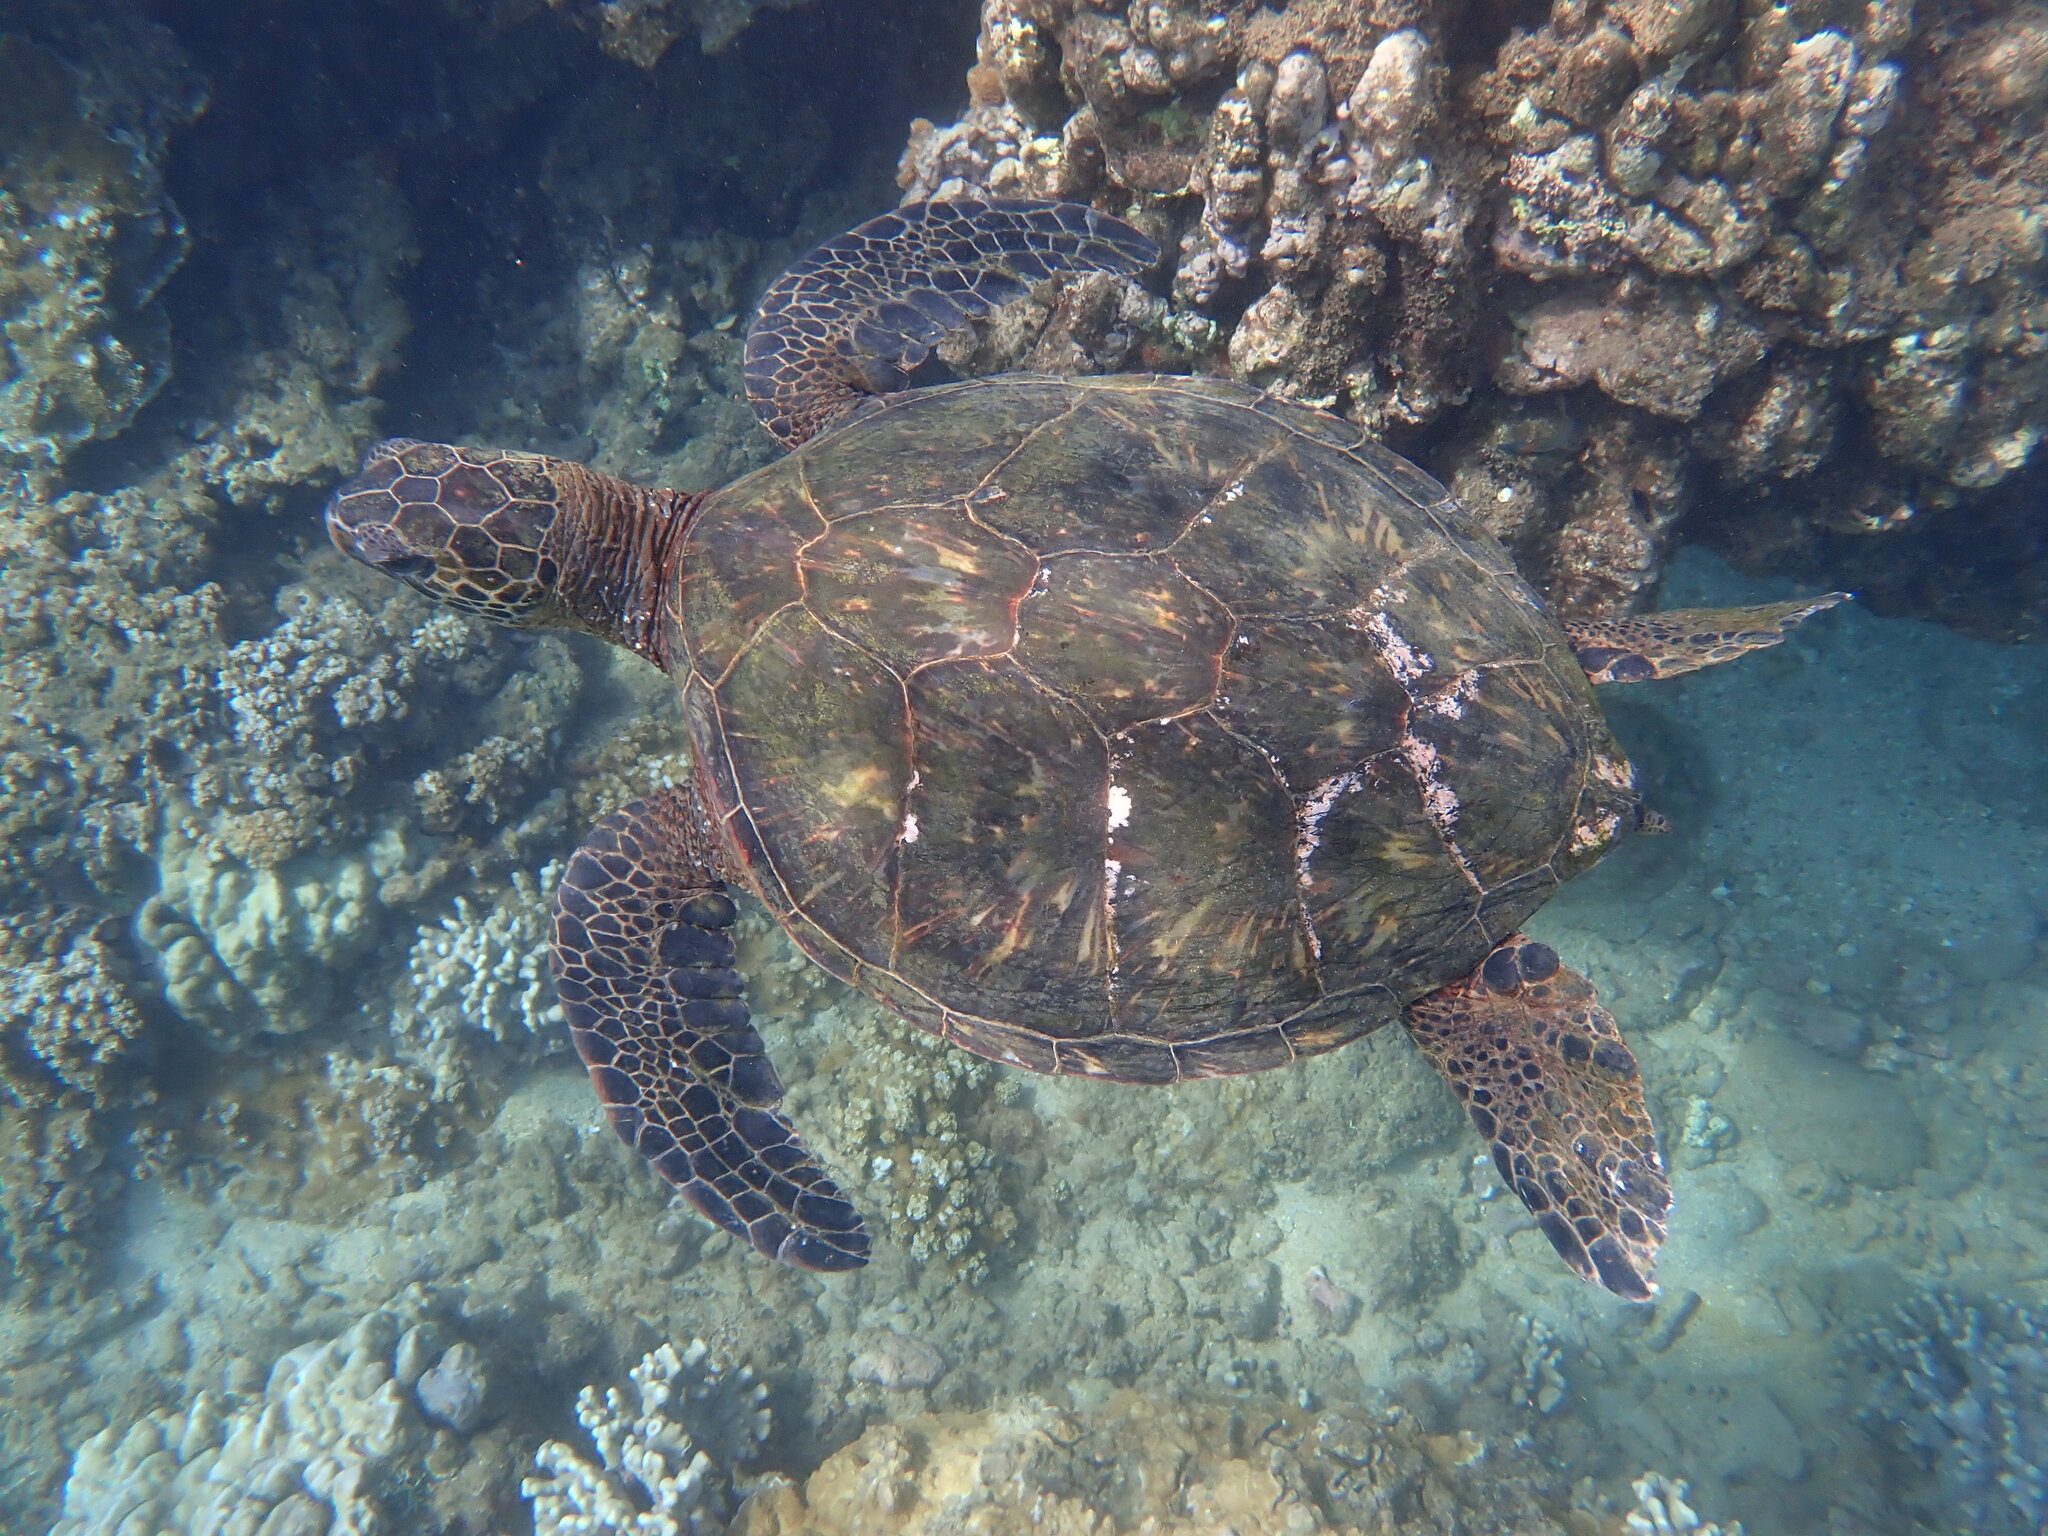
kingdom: Animalia
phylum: Chordata
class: Testudines
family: Cheloniidae
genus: Chelonia
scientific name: Chelonia mydas
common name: Green turtle
